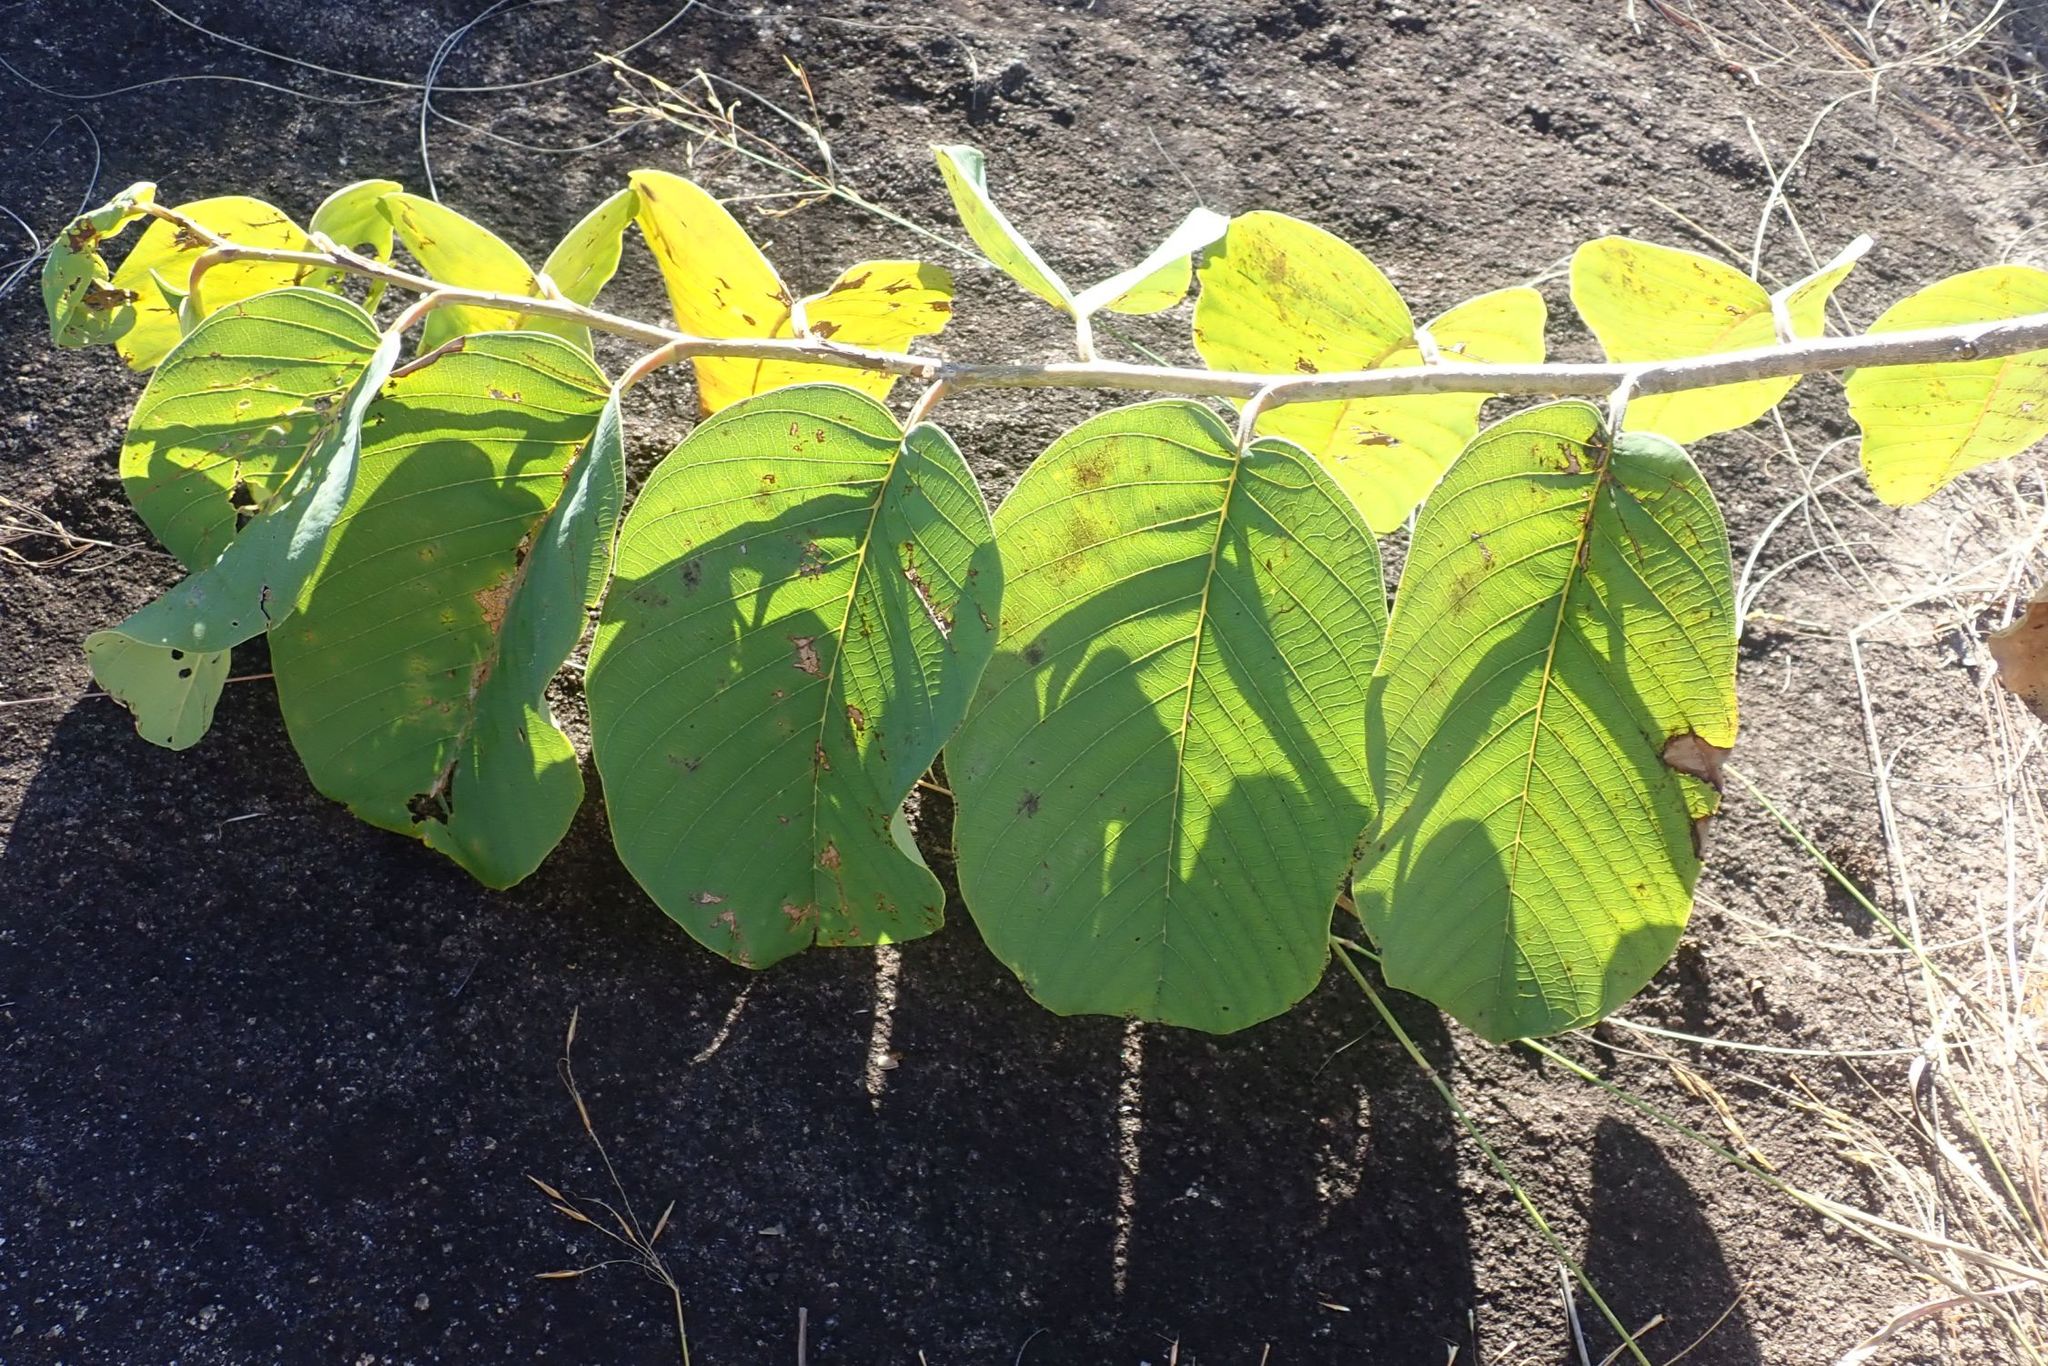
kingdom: Plantae
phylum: Tracheophyta
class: Magnoliopsida
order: Magnoliales
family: Annonaceae
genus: Annona
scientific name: Annona senegalensis
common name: Wild custard-apple
